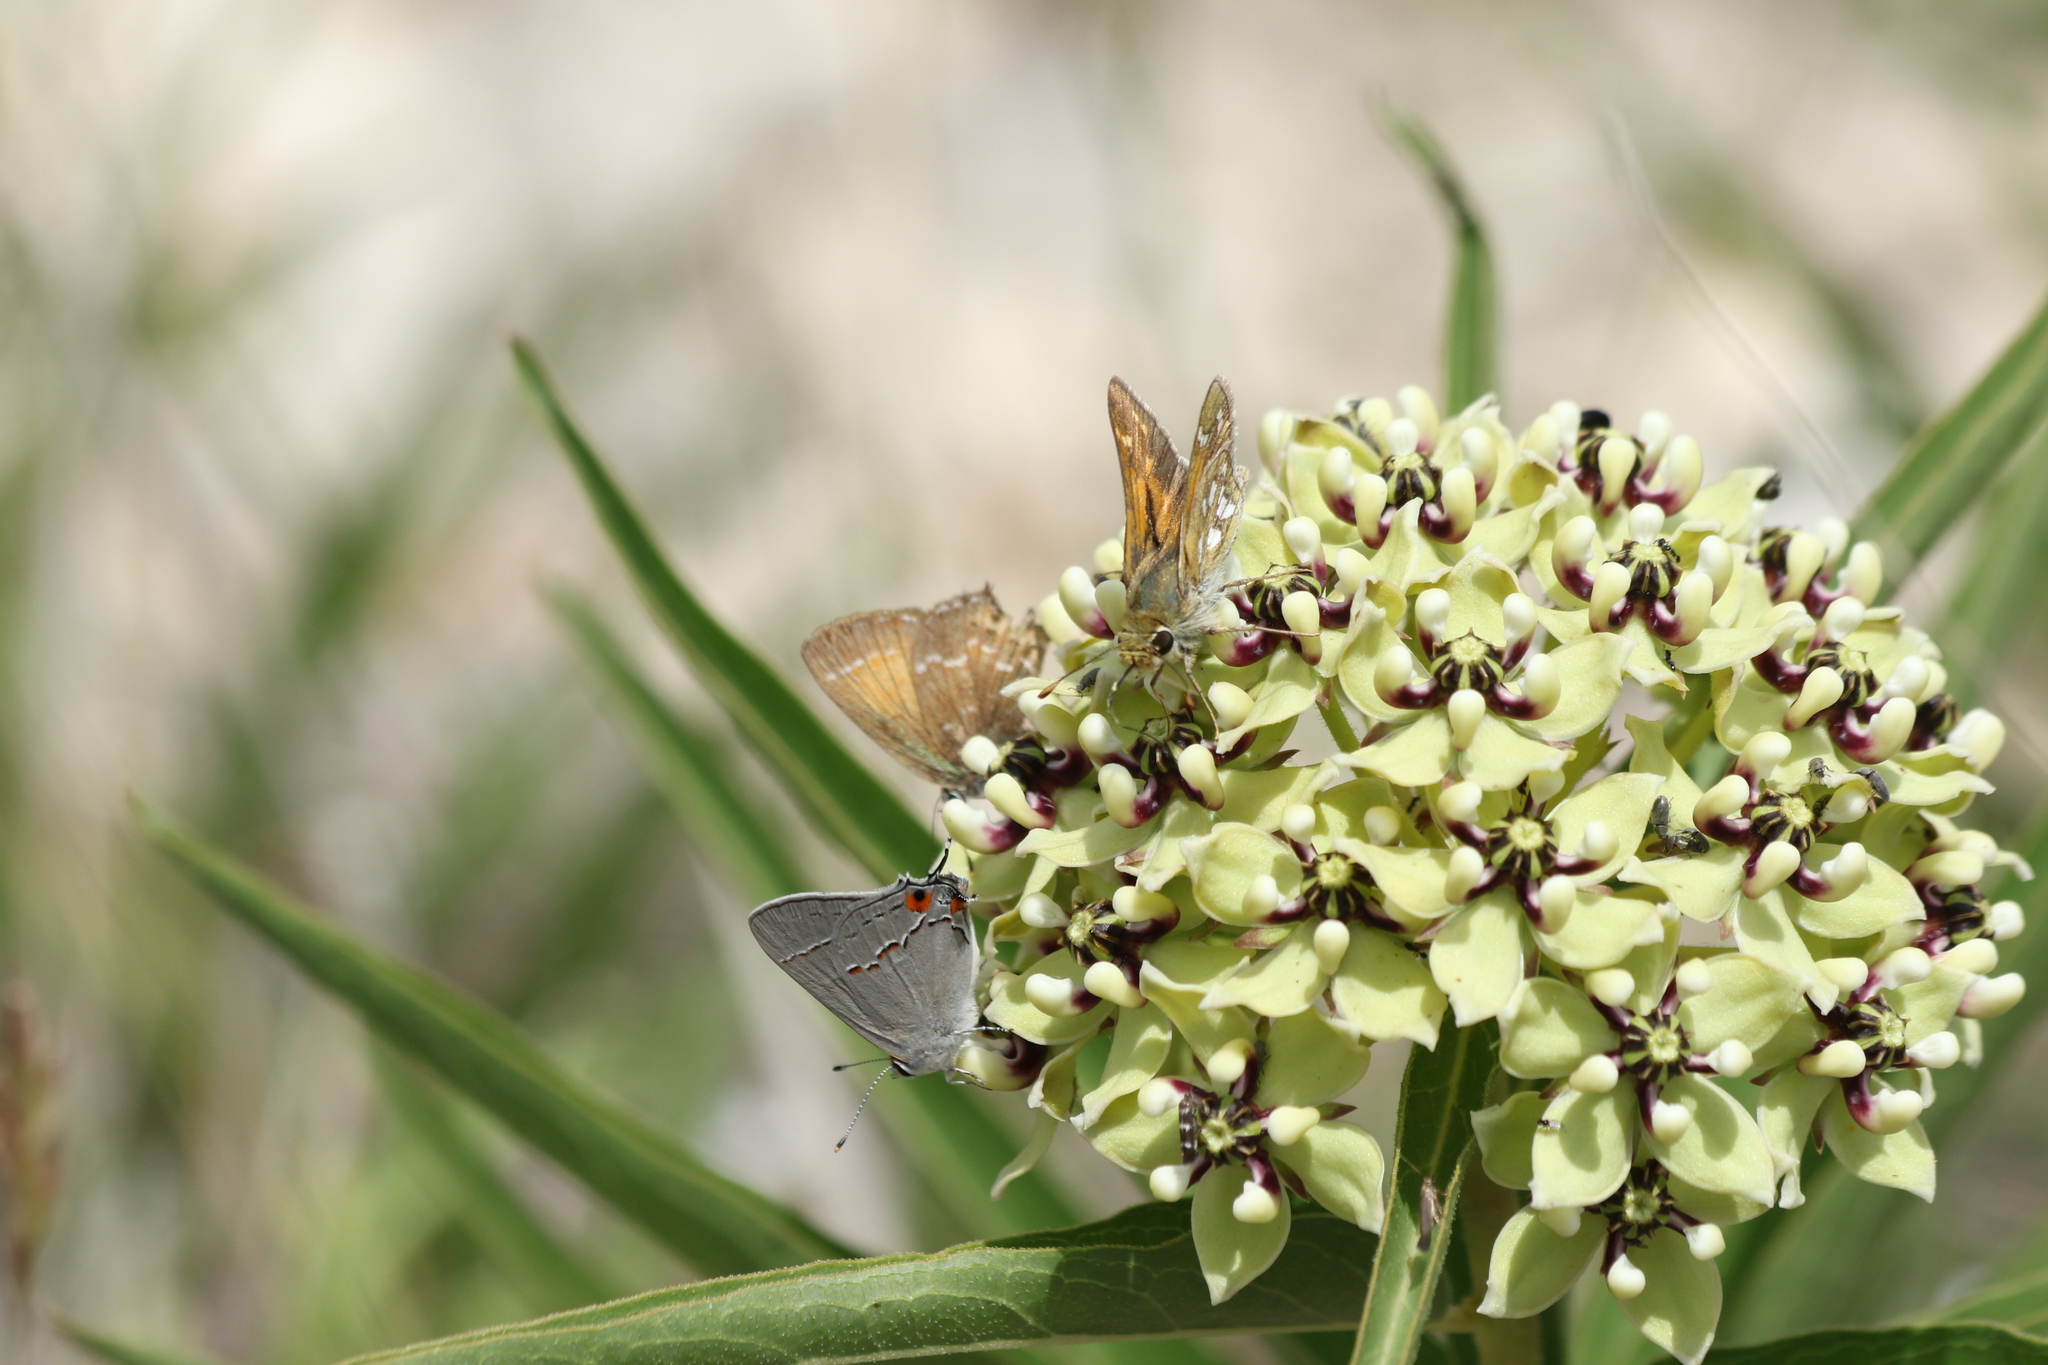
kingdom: Animalia
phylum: Arthropoda
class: Insecta
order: Lepidoptera
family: Hesperiidae
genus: Hesperia
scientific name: Hesperia viridis
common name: Green skipper
